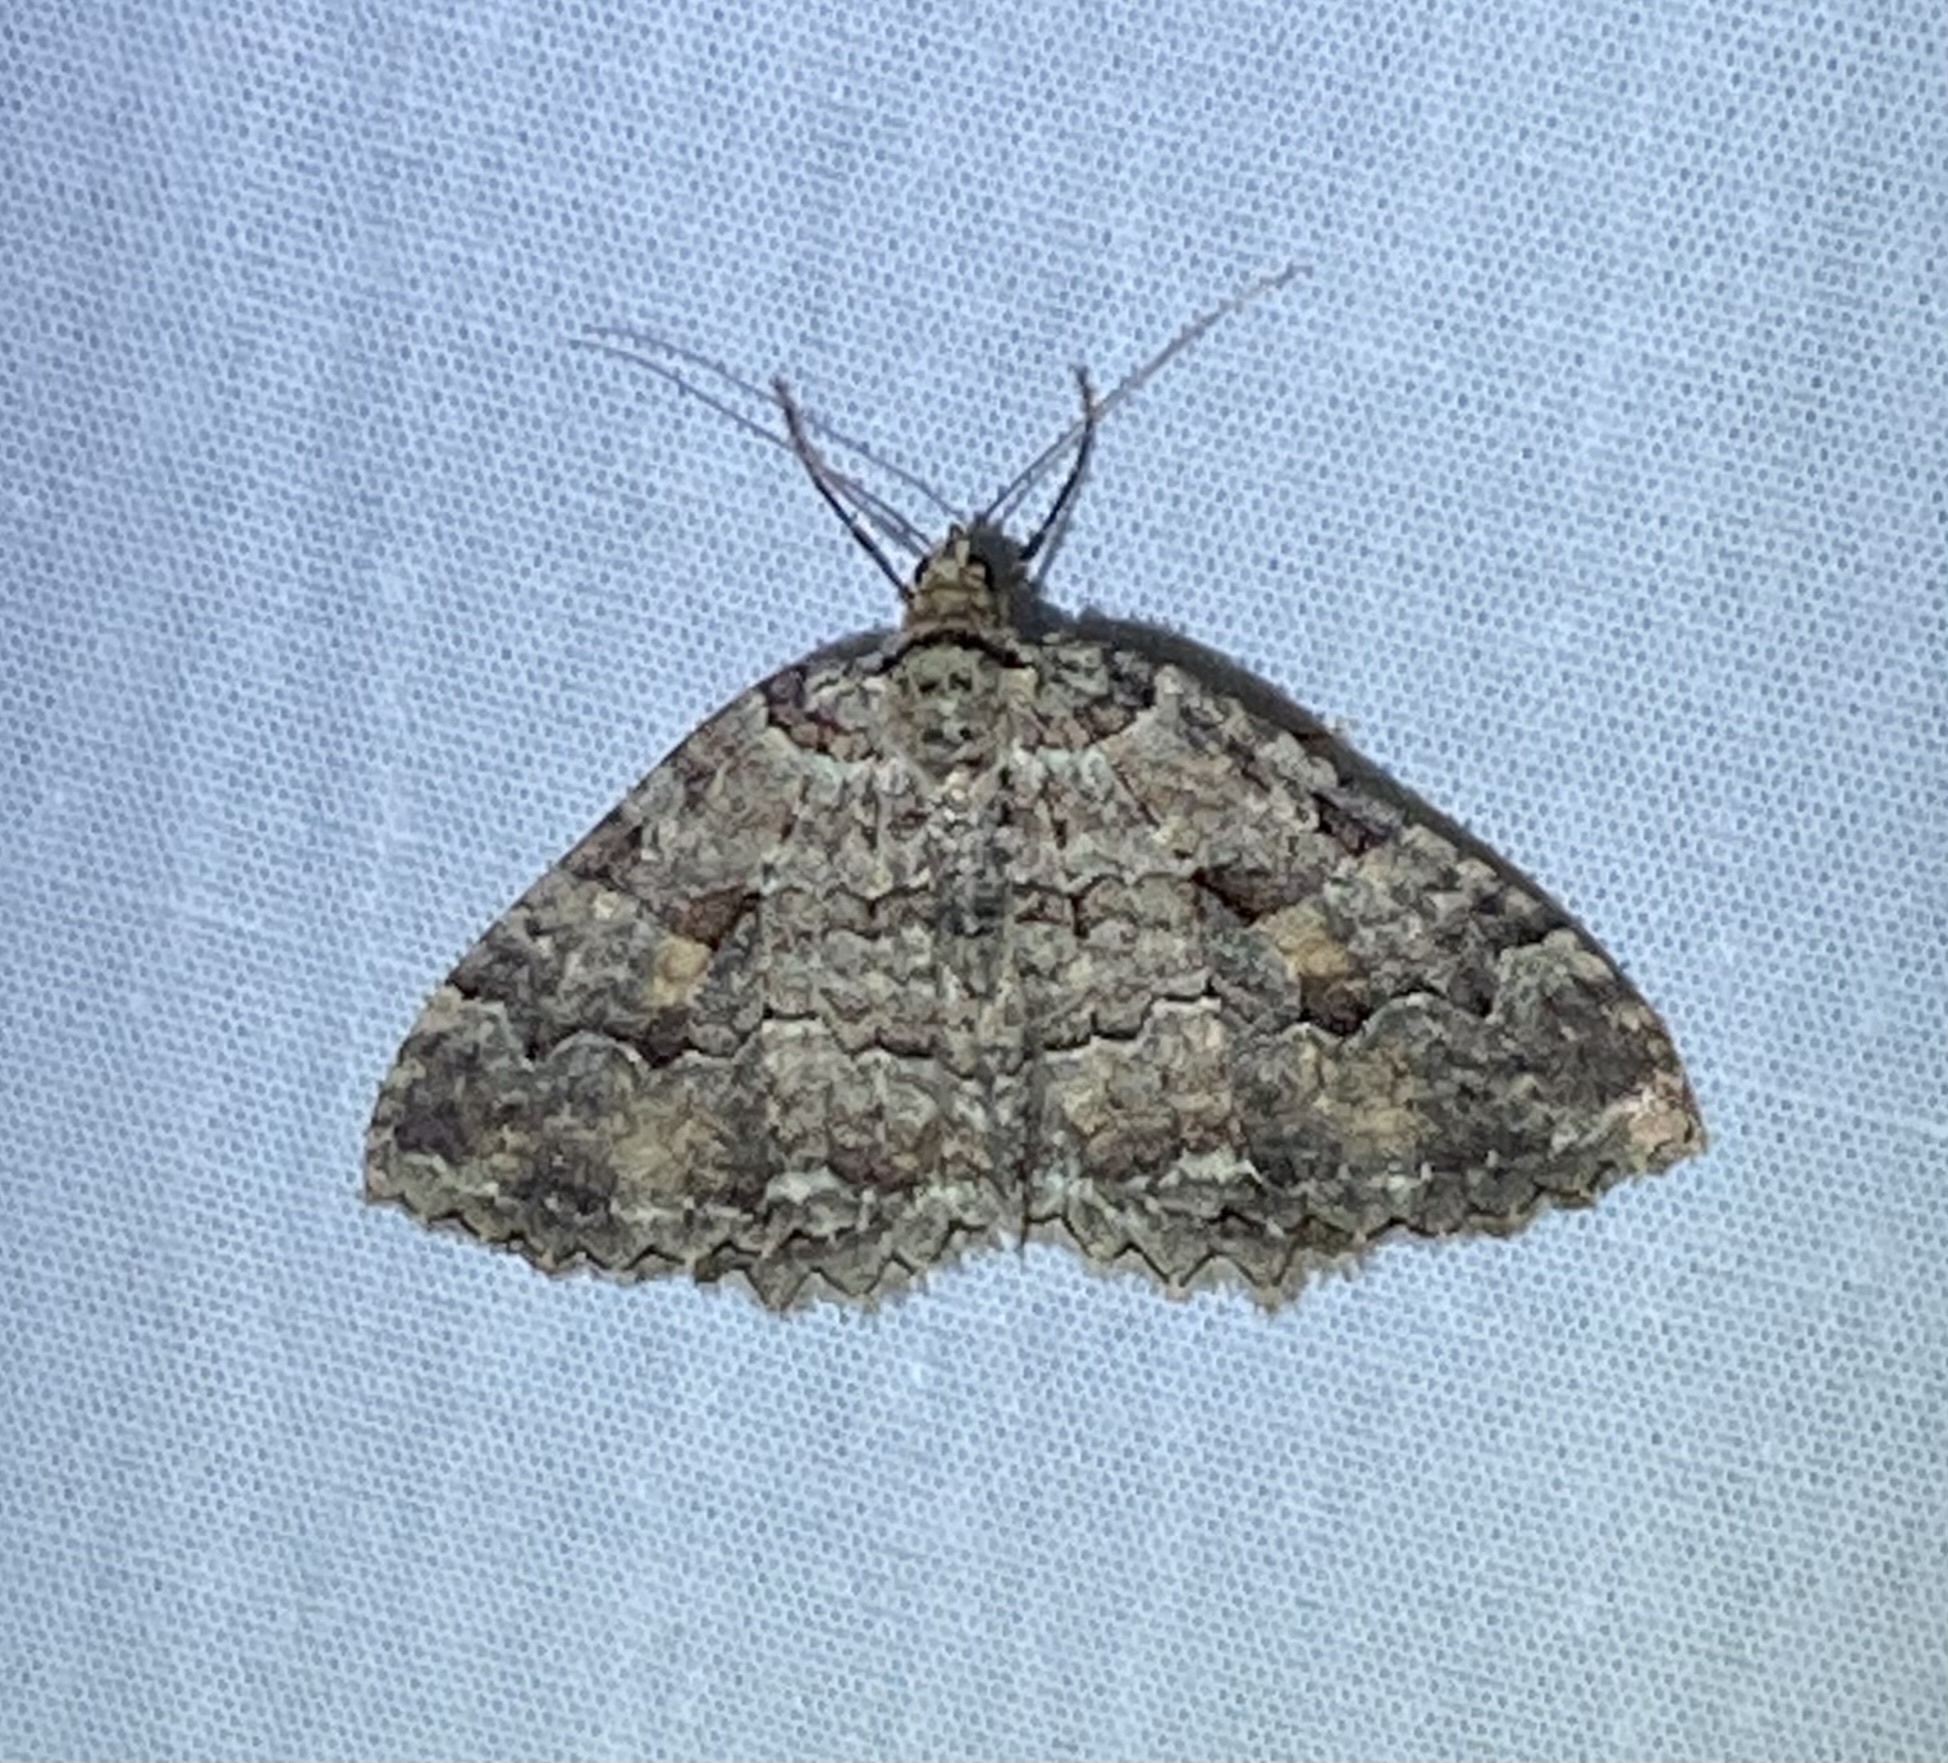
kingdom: Animalia
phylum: Arthropoda
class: Insecta
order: Lepidoptera
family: Geometridae
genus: Triphosa
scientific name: Triphosa haesitata
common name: Tissue moth
